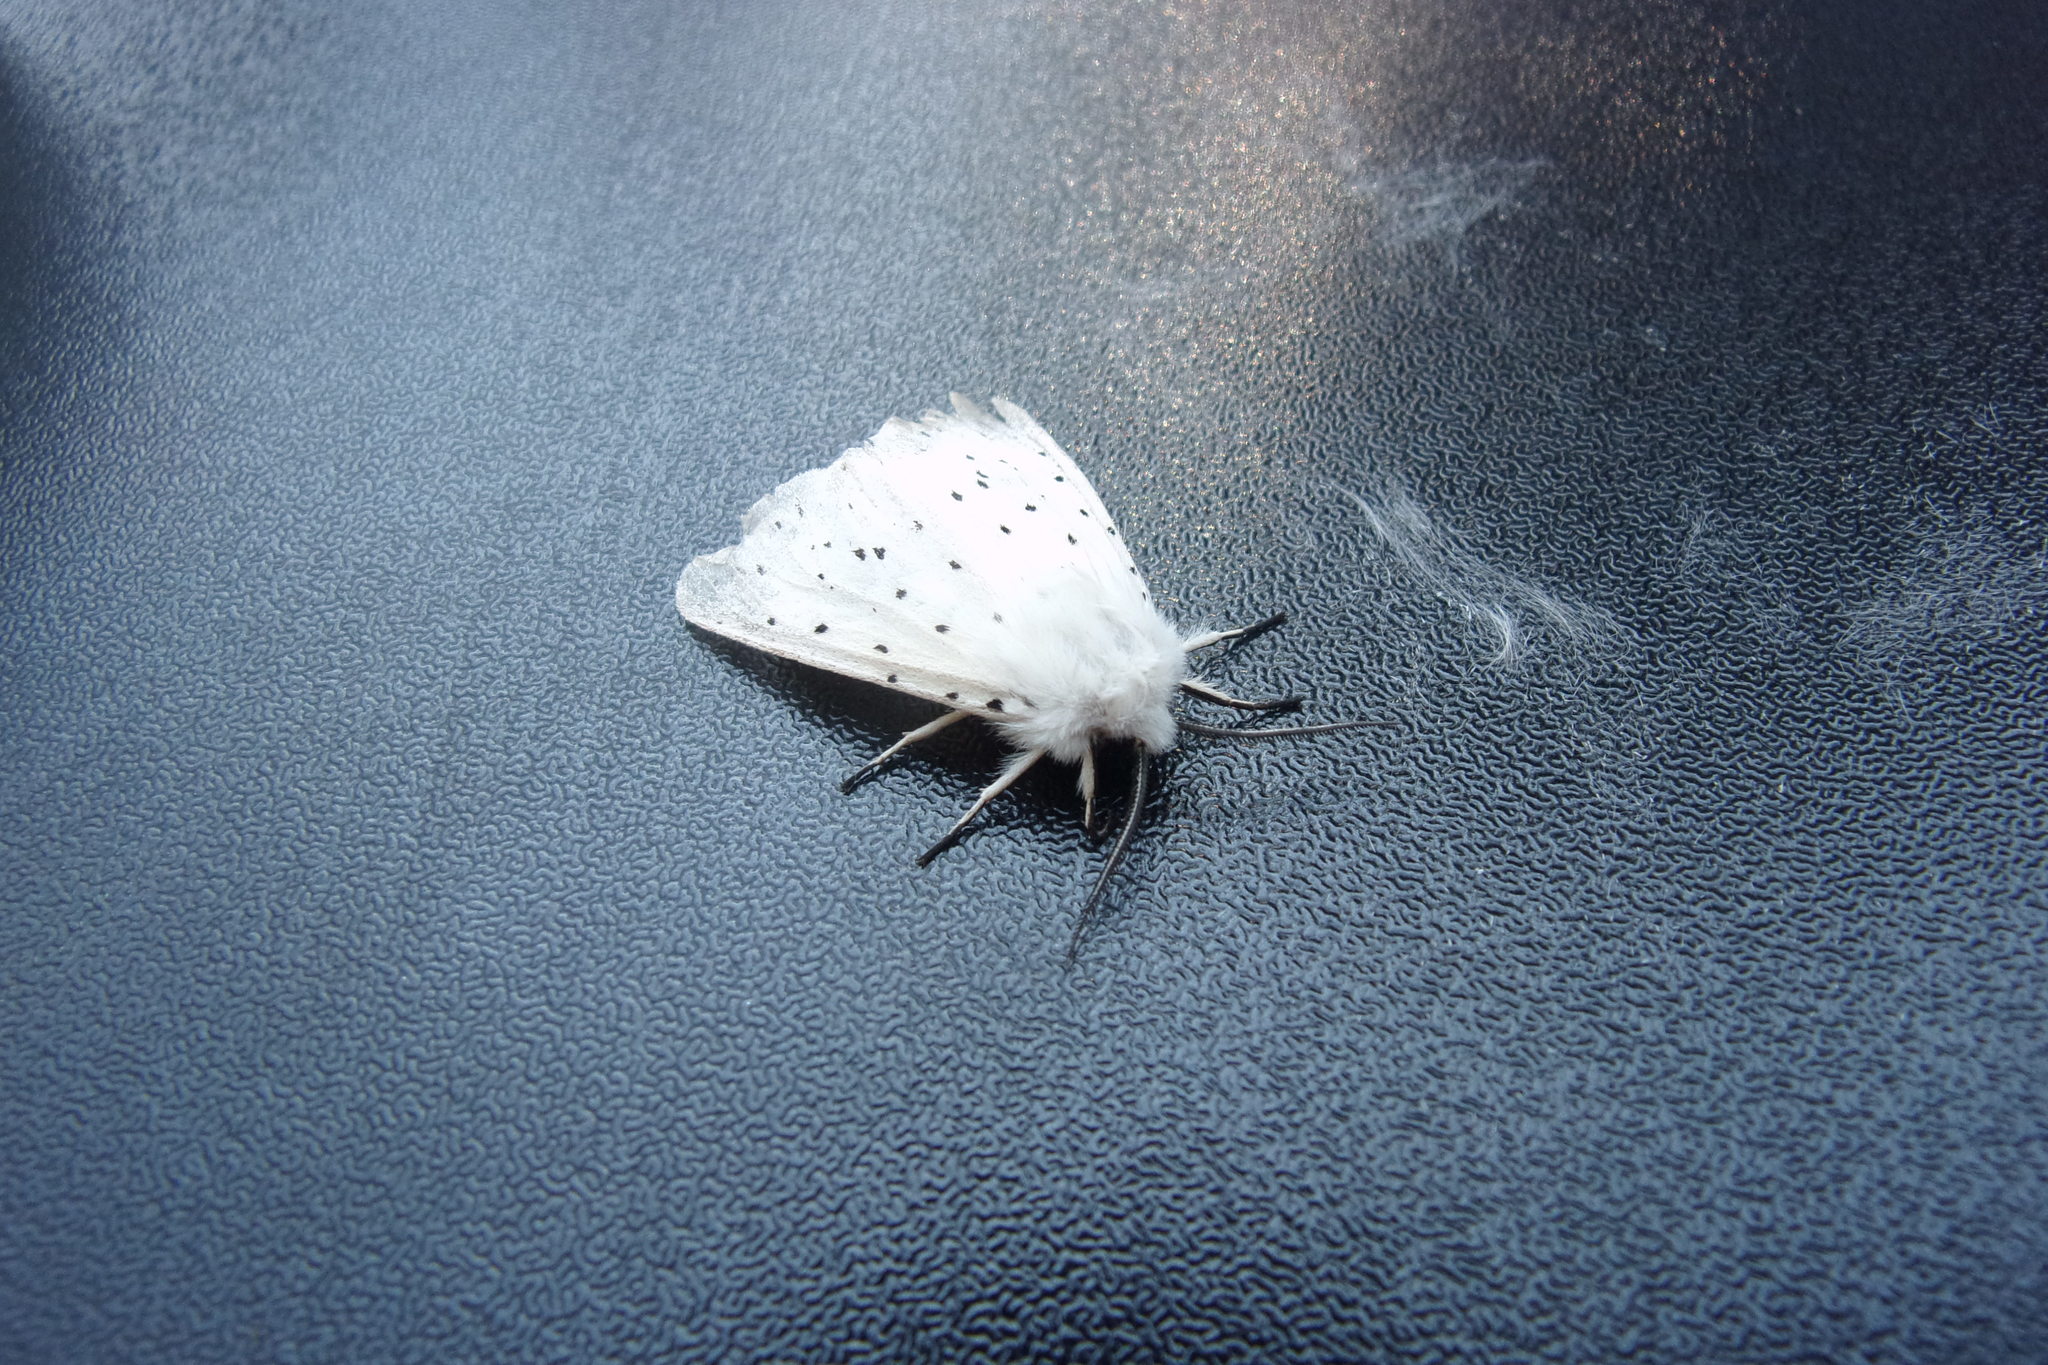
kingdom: Animalia
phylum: Arthropoda
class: Insecta
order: Lepidoptera
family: Erebidae
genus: Spilosoma
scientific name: Spilosoma lubricipeda
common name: White ermine
